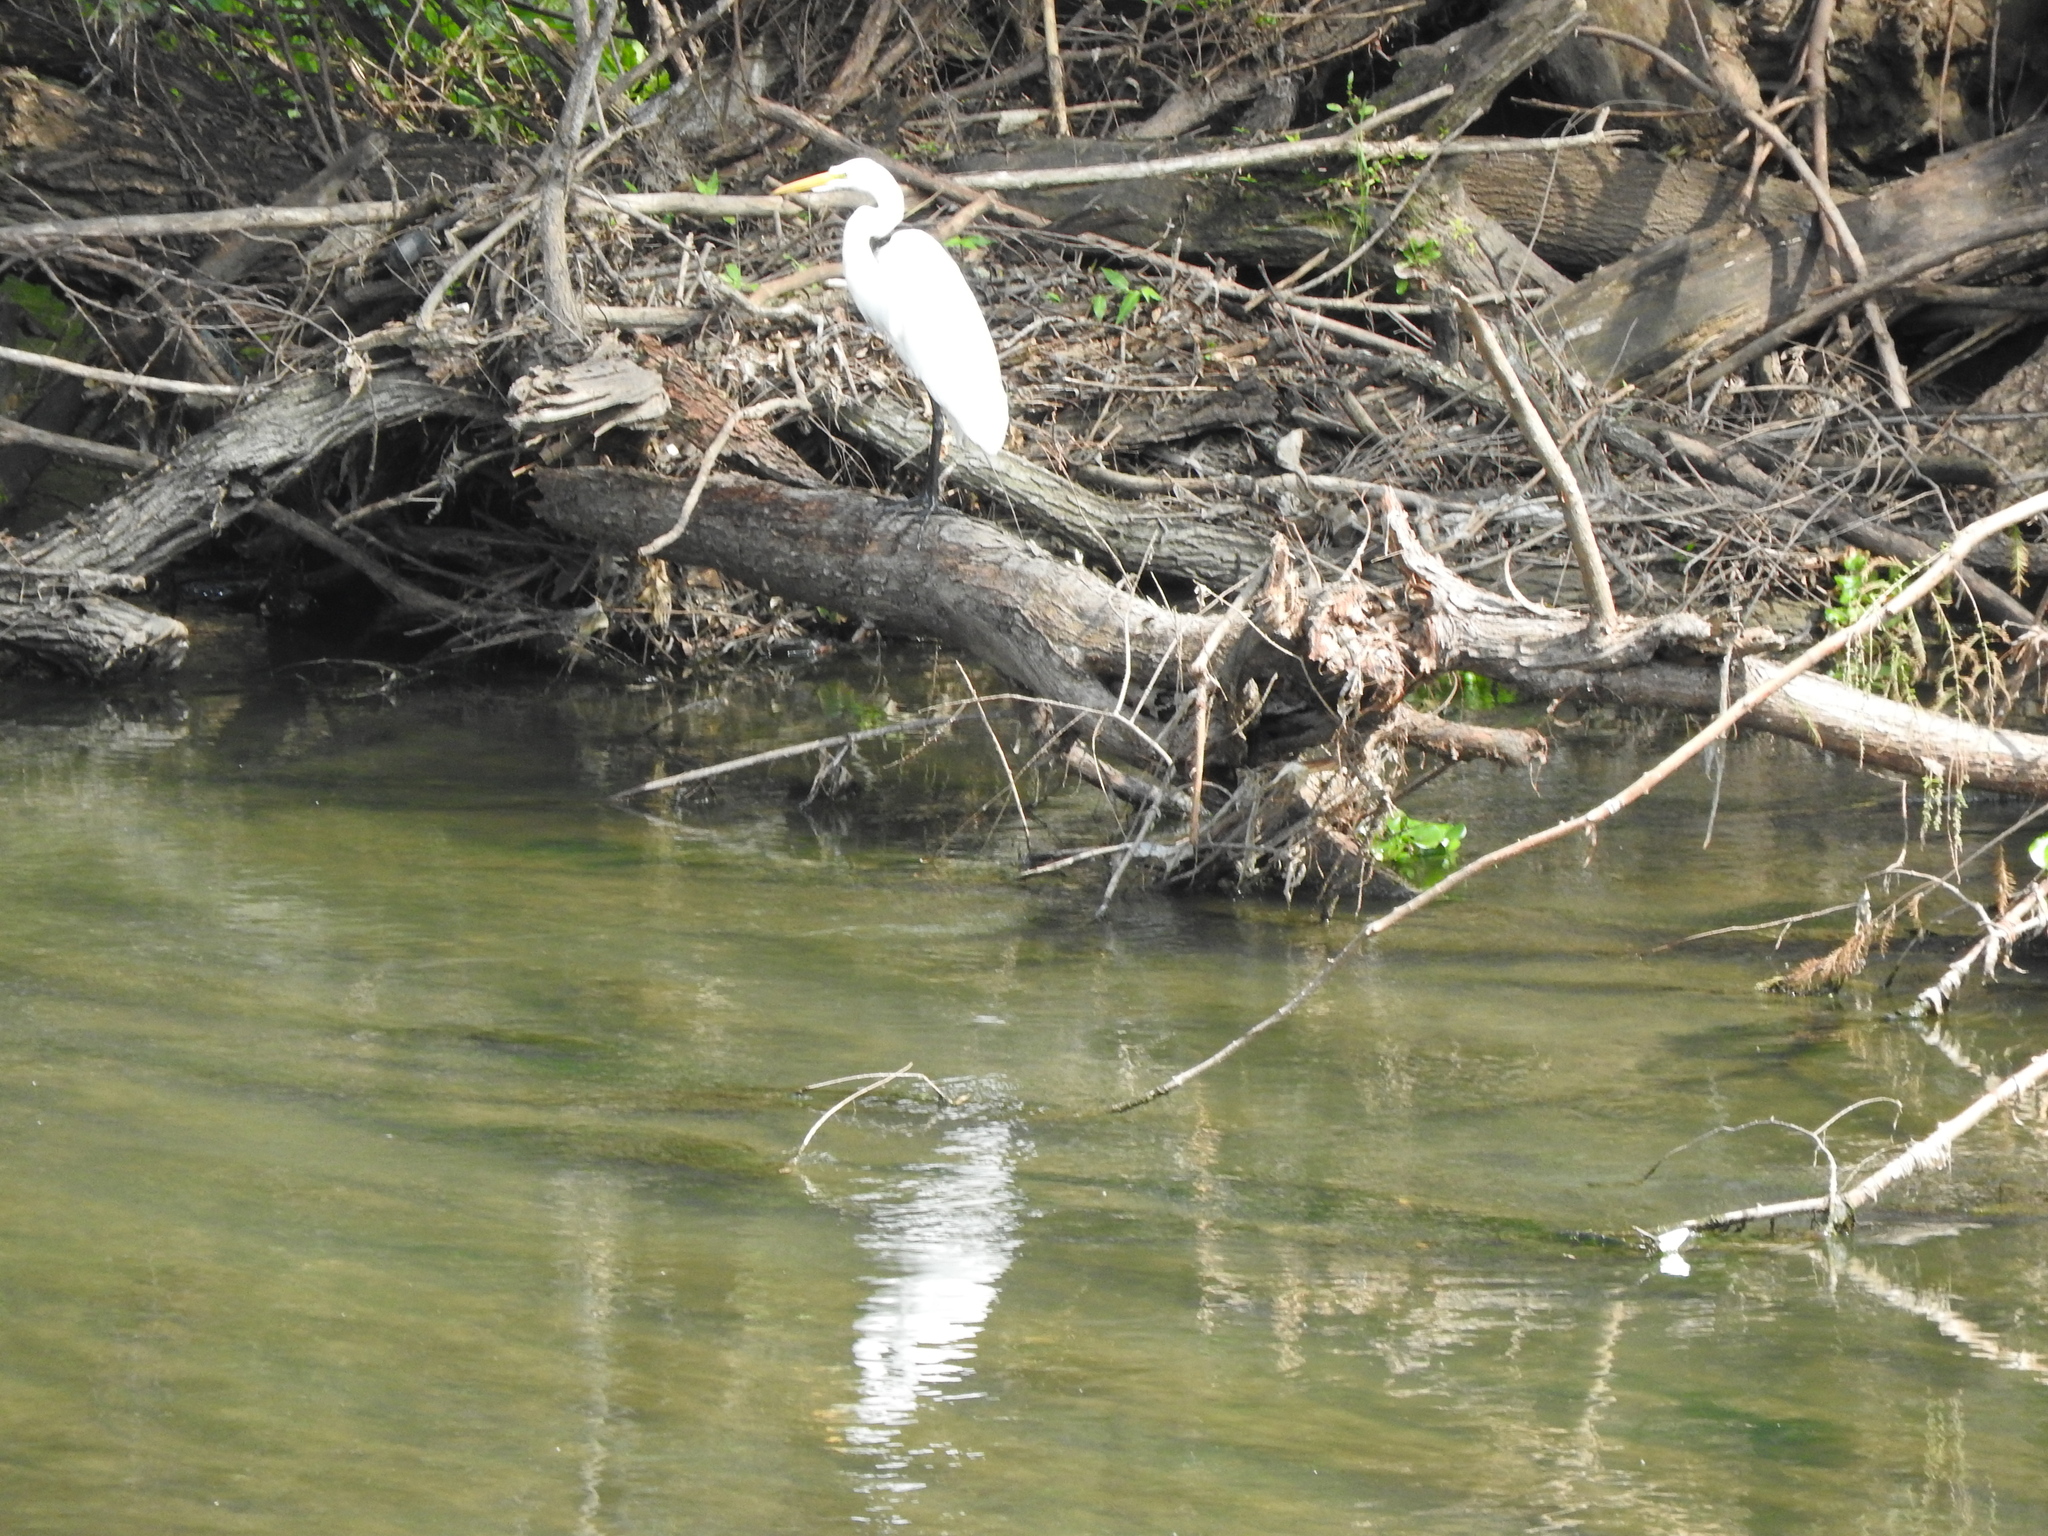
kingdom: Animalia
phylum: Chordata
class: Aves
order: Pelecaniformes
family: Ardeidae
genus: Ardea
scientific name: Ardea alba
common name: Great egret
